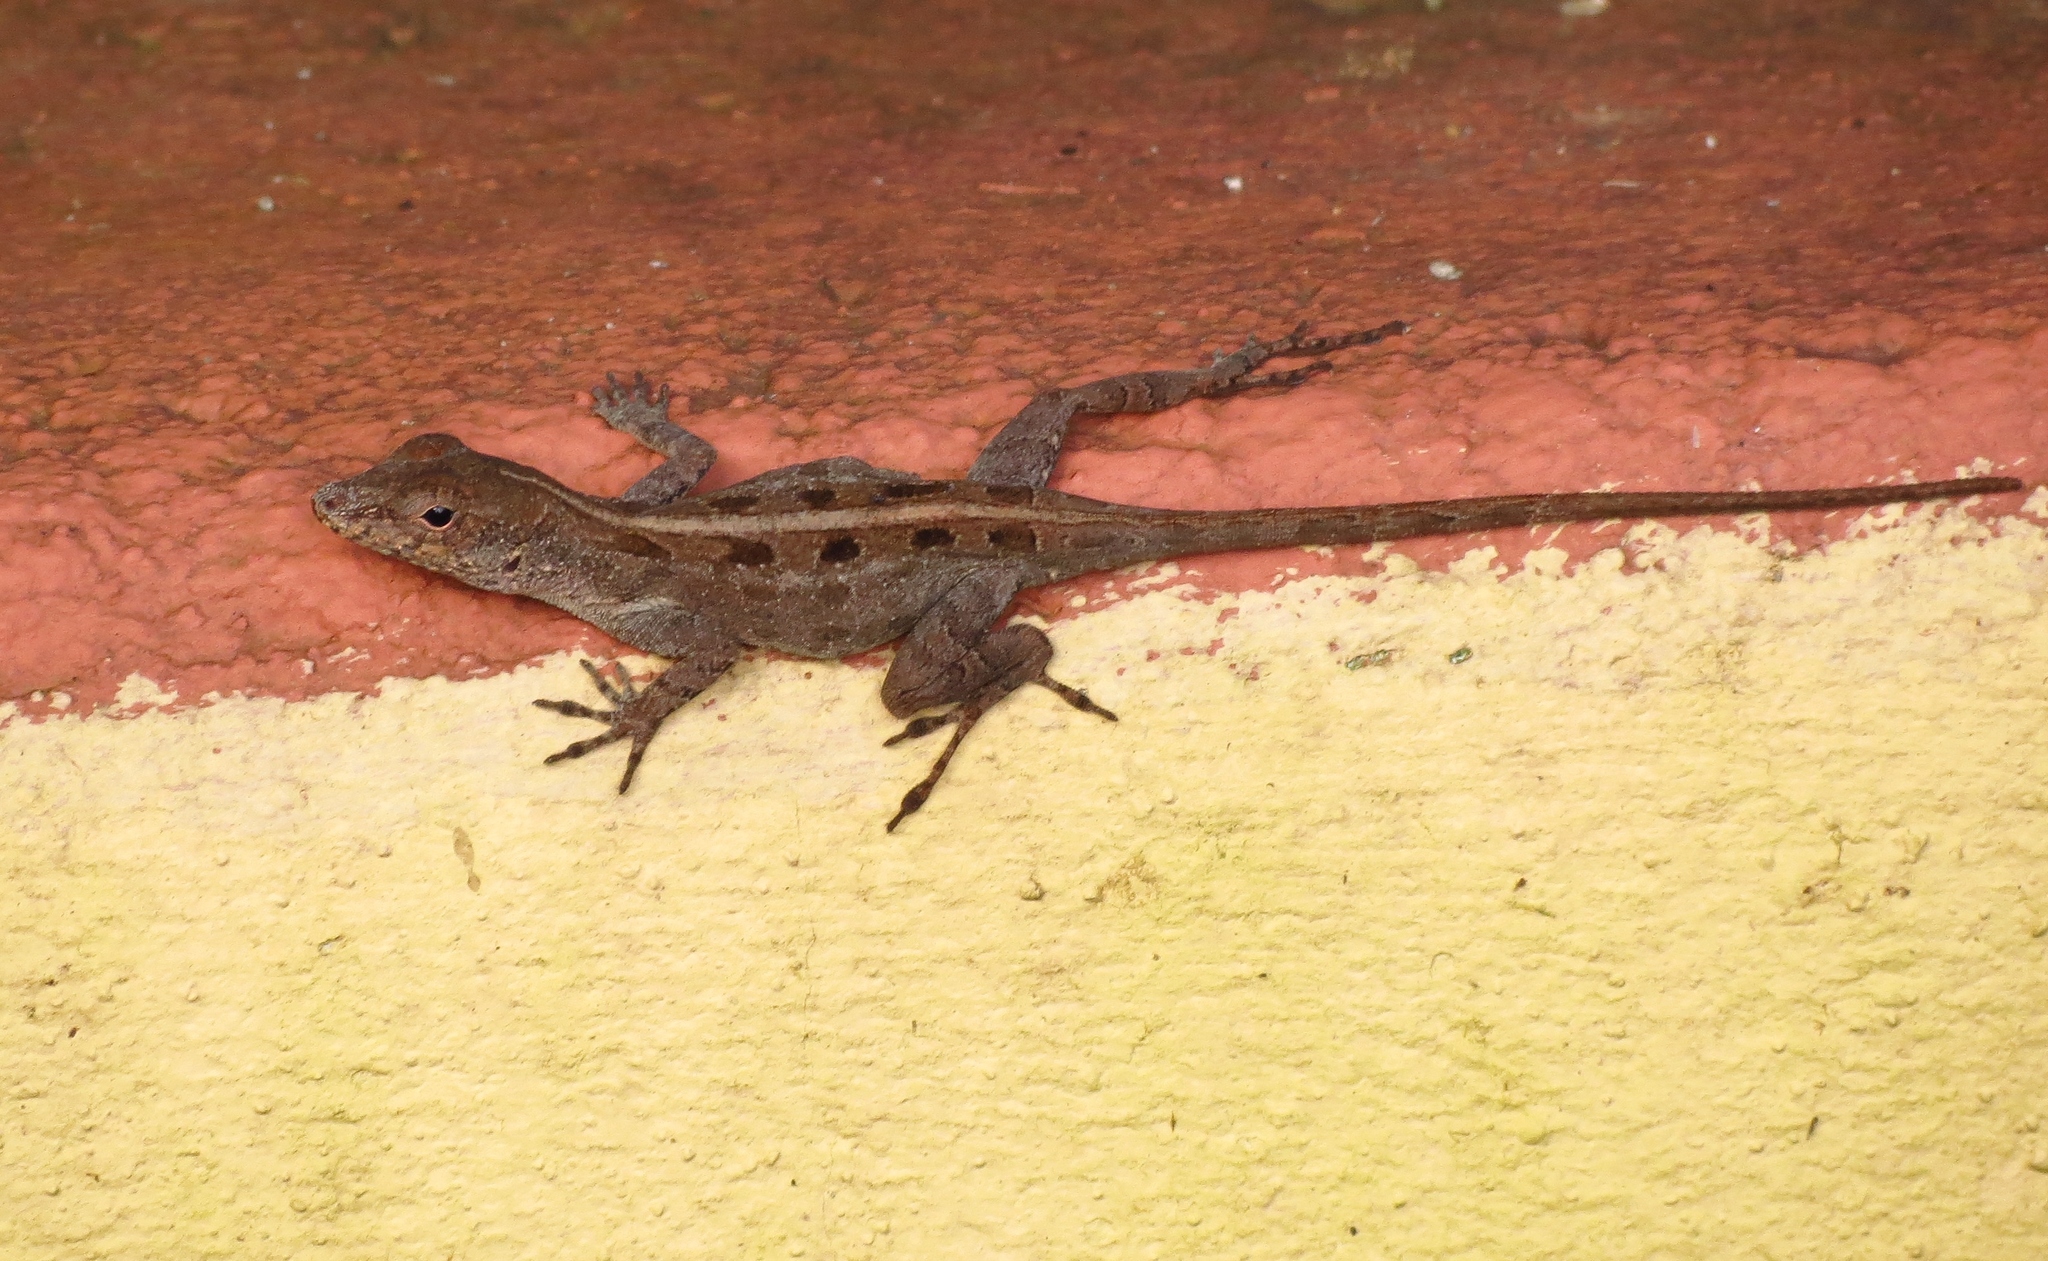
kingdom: Animalia
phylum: Chordata
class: Squamata
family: Dactyloidae
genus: Anolis
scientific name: Anolis cristatellus
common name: Crested anole
